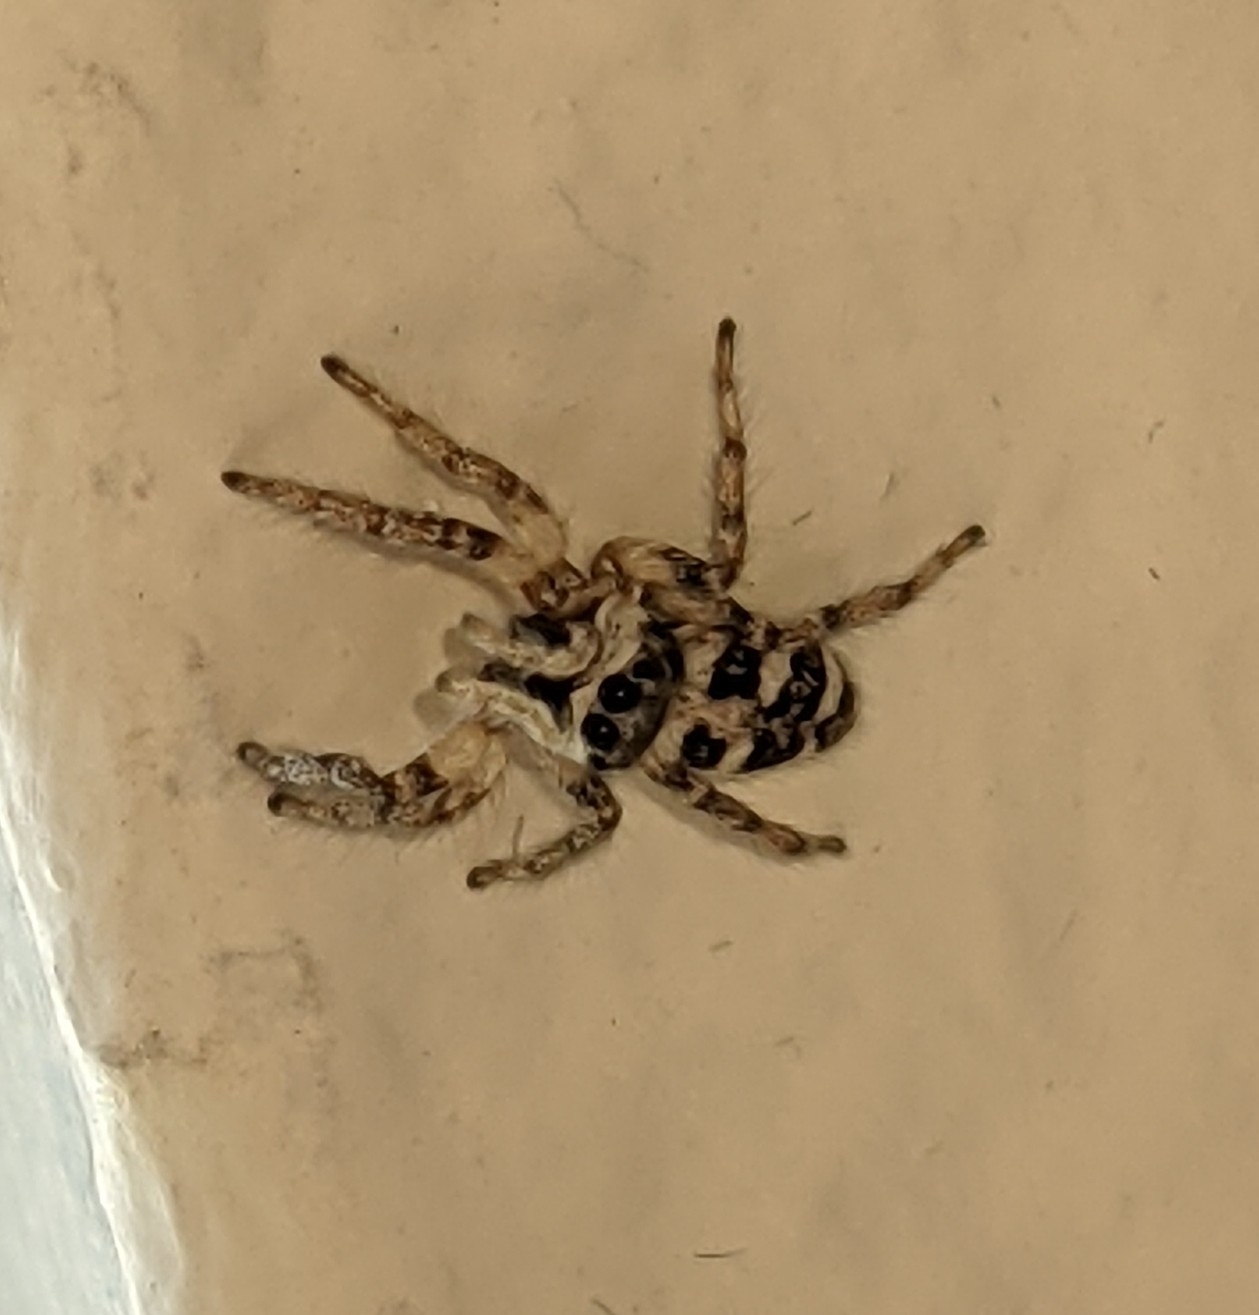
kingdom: Animalia
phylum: Arthropoda
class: Arachnida
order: Araneae
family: Salticidae
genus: Salticus
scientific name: Salticus scenicus
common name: Zebra jumper
